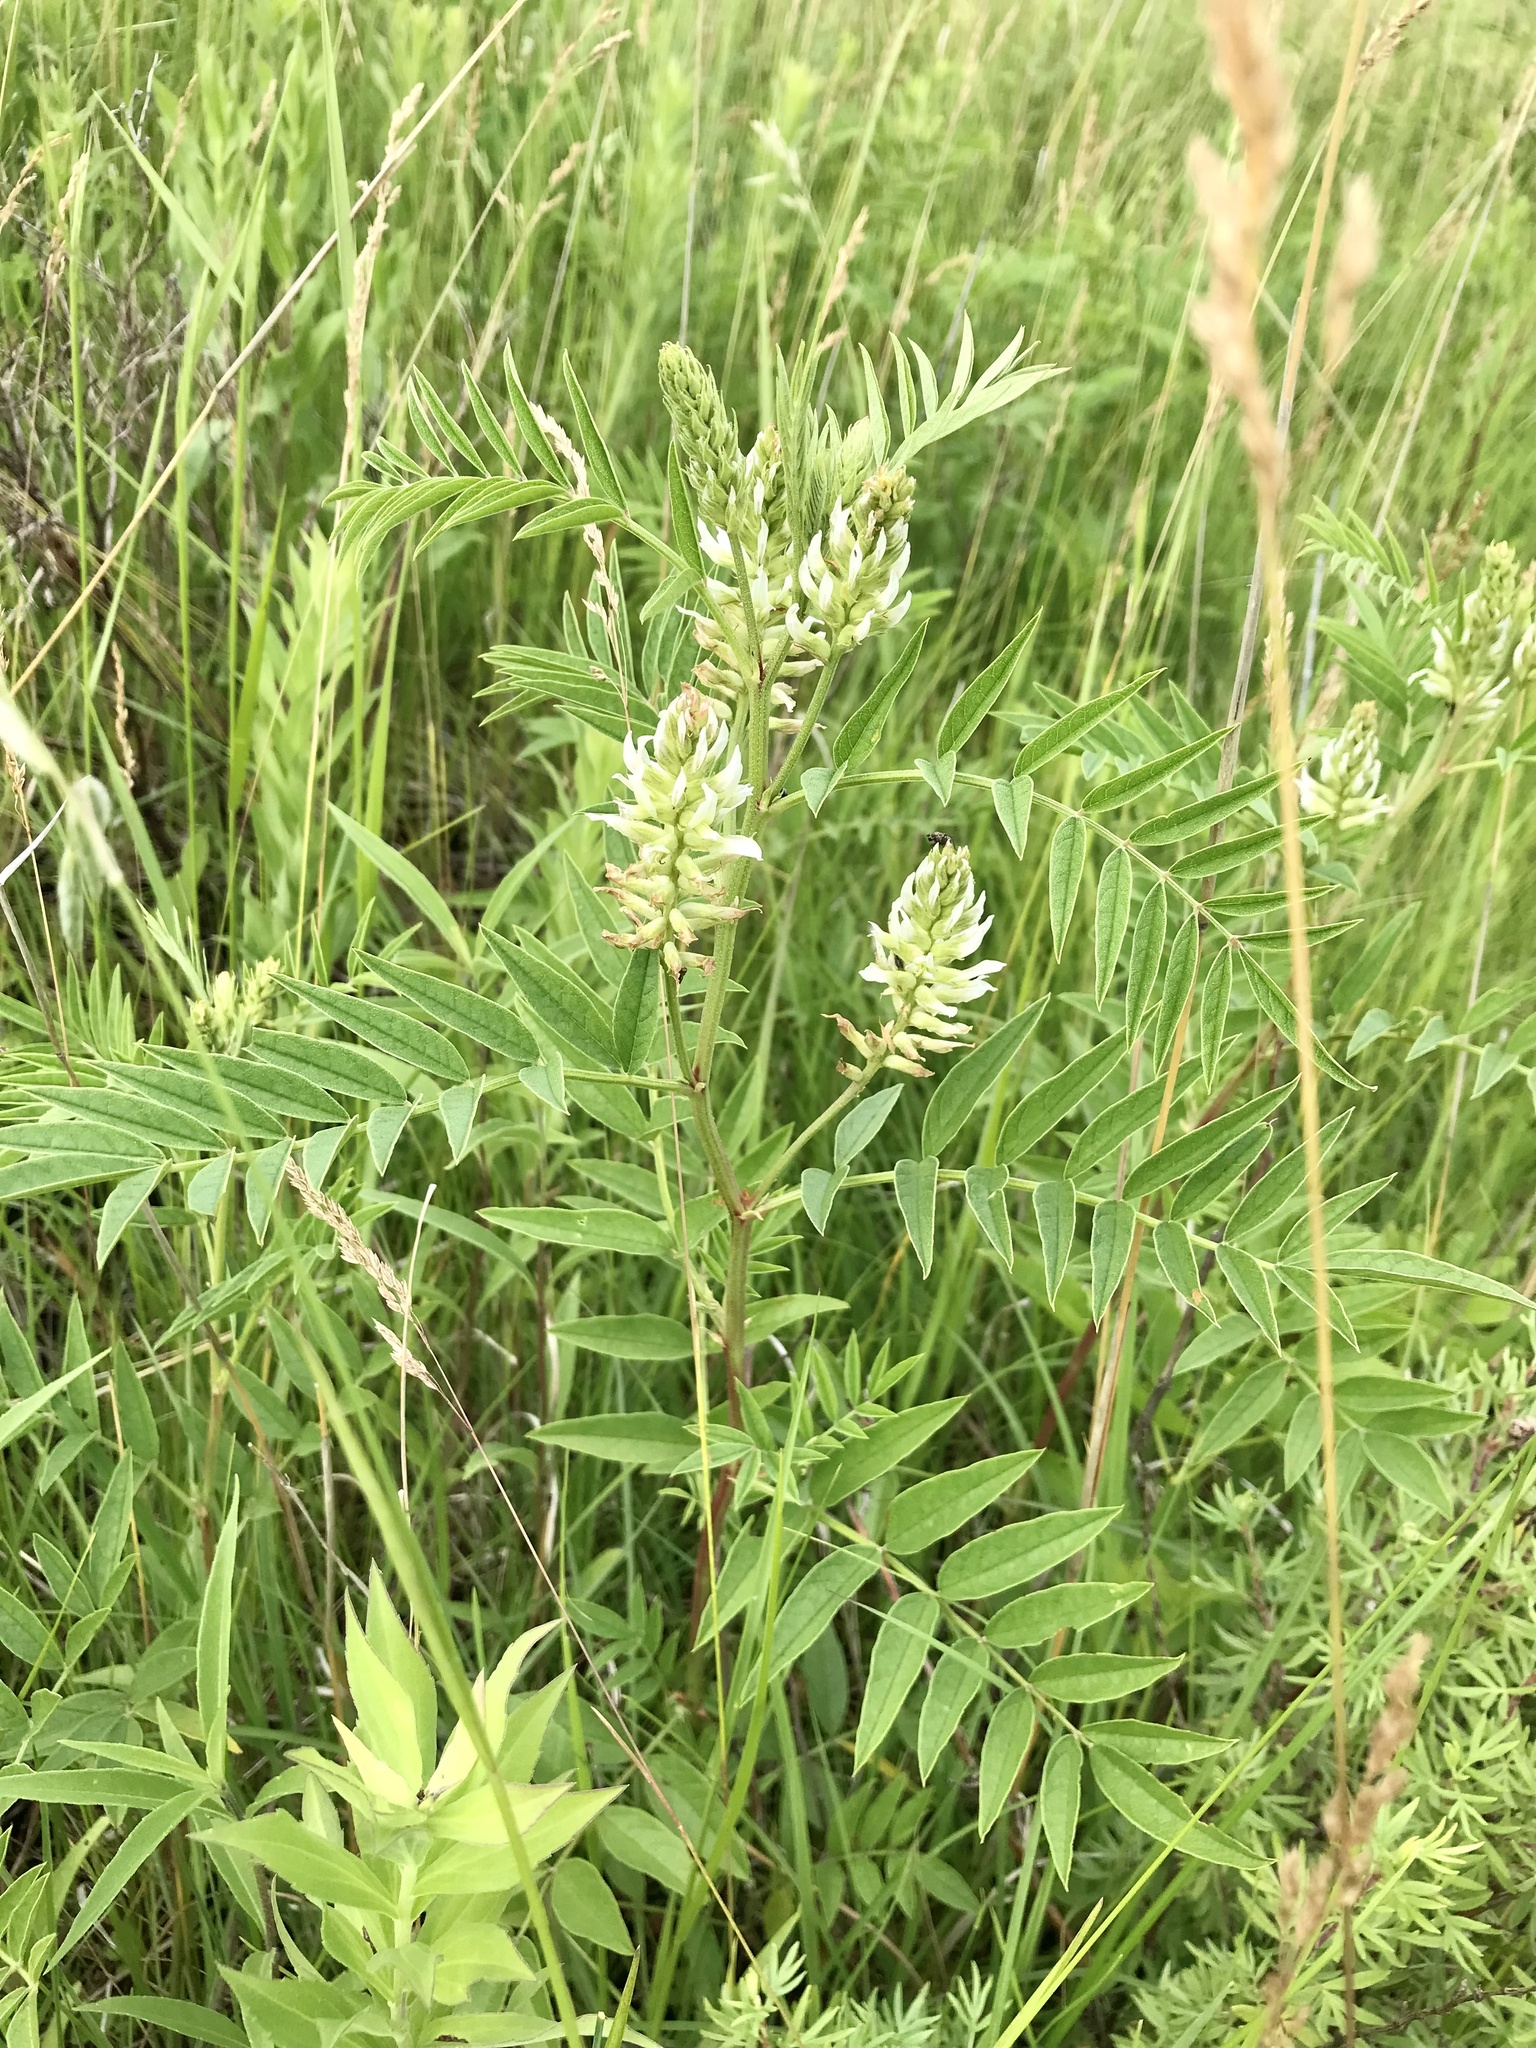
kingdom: Plantae
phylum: Tracheophyta
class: Magnoliopsida
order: Fabales
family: Fabaceae
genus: Glycyrrhiza
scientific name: Glycyrrhiza lepidota
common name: American liquorice
